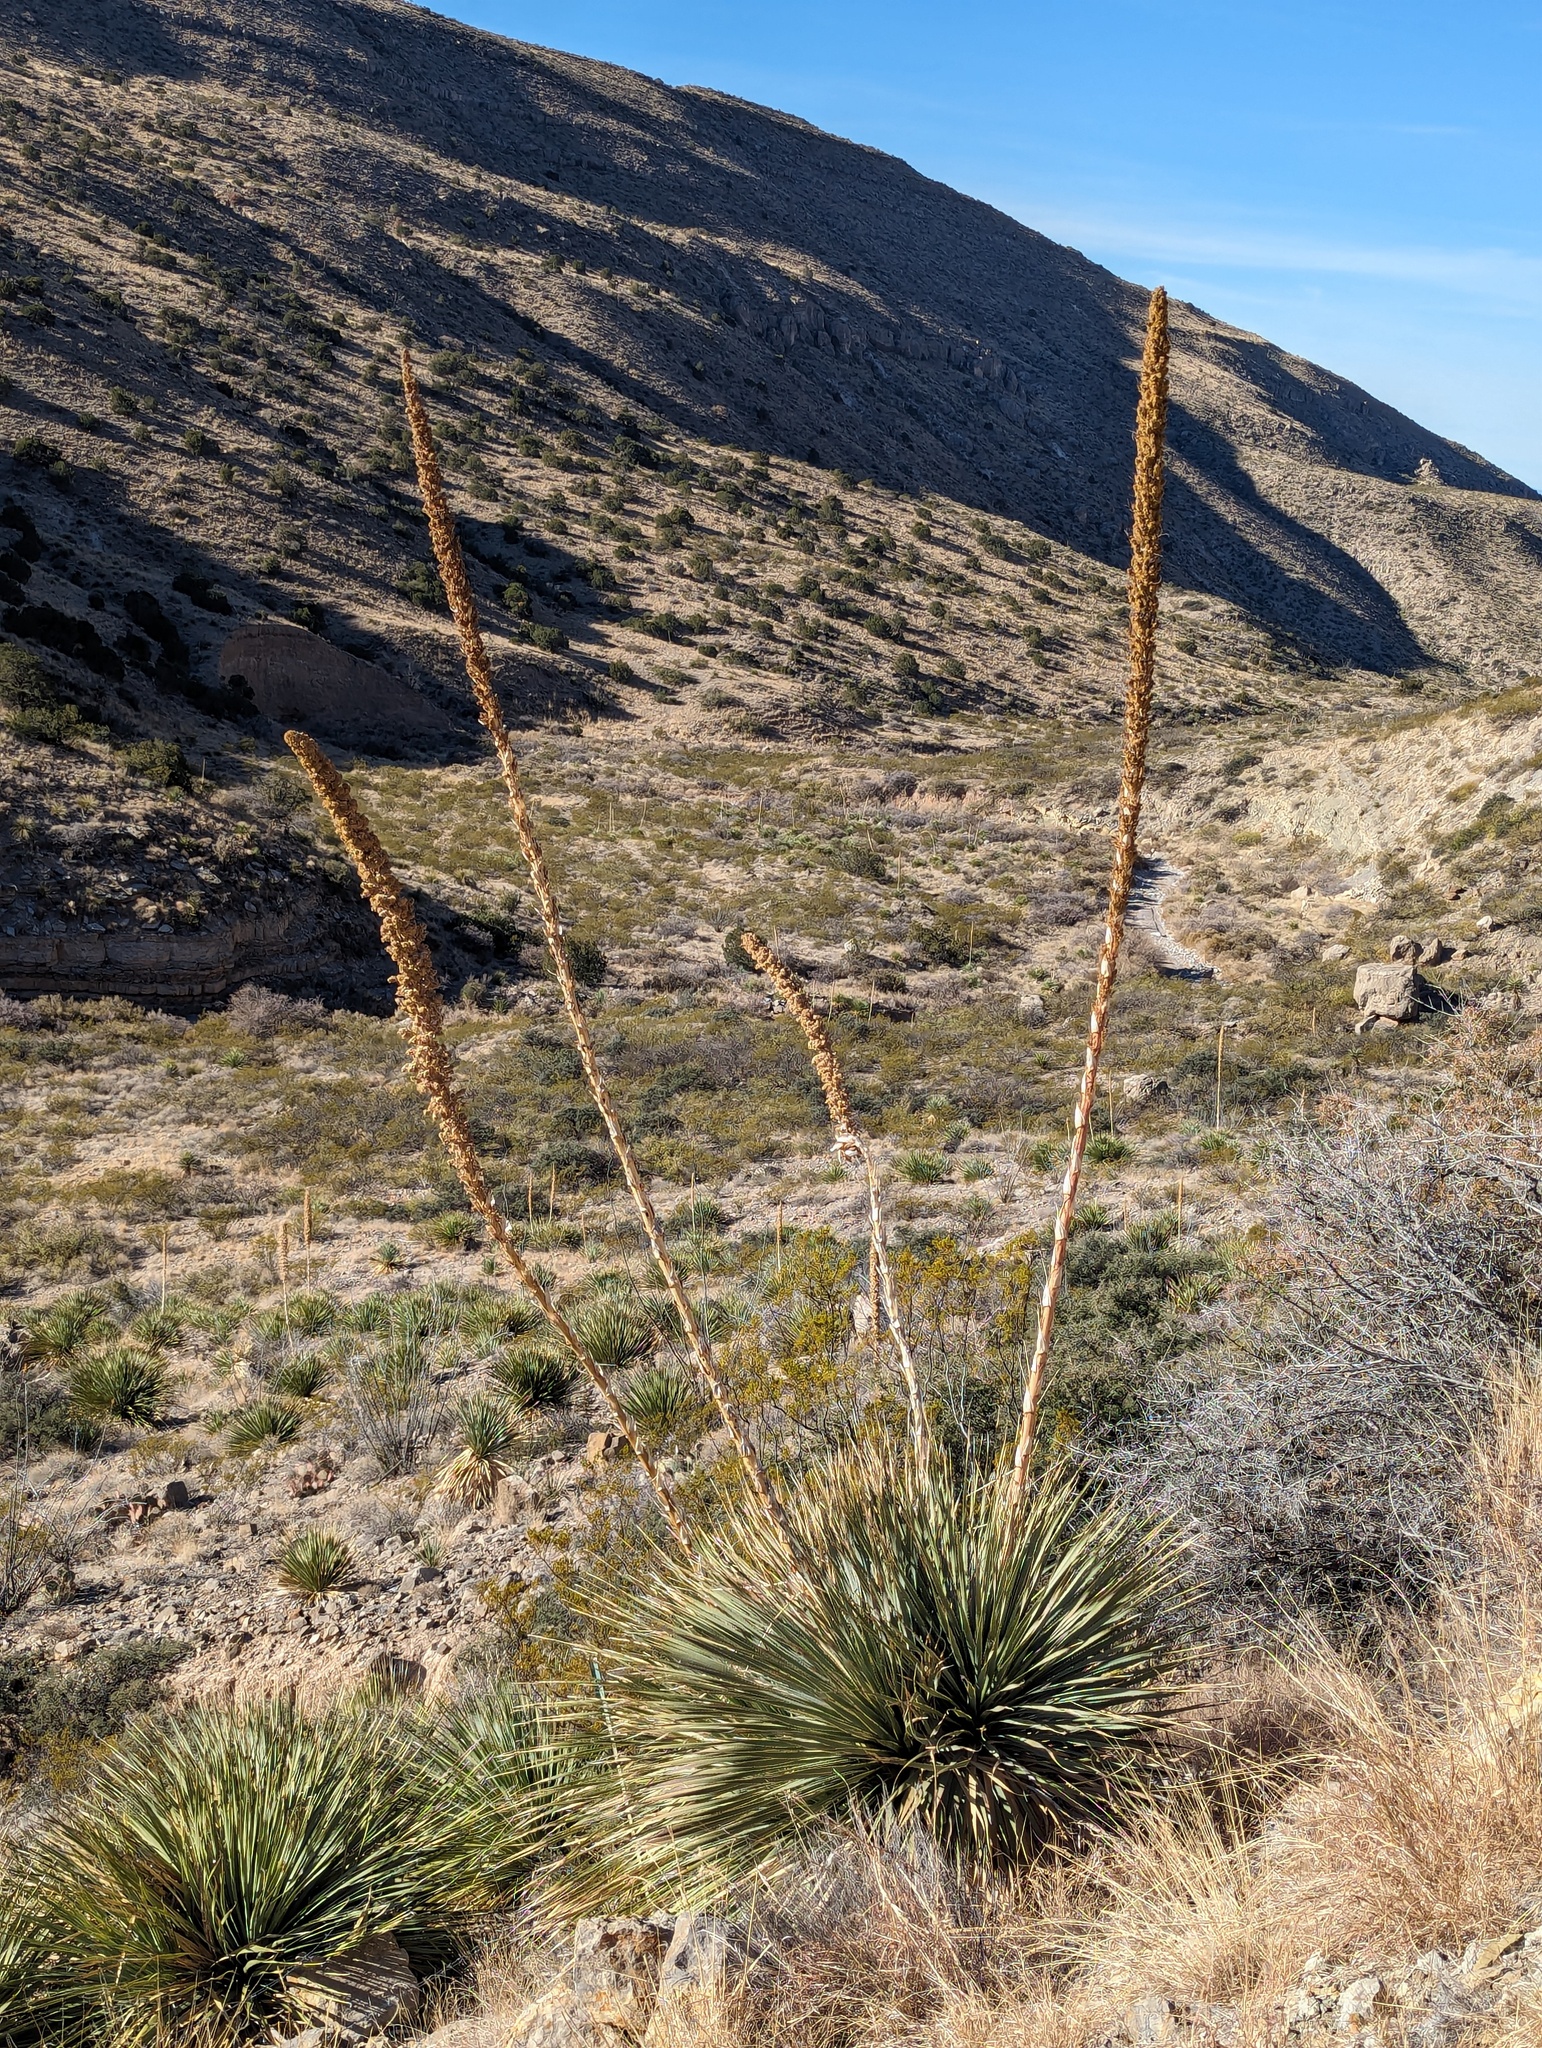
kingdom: Plantae
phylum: Tracheophyta
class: Liliopsida
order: Asparagales
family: Asparagaceae
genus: Dasylirion
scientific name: Dasylirion wheeleri
